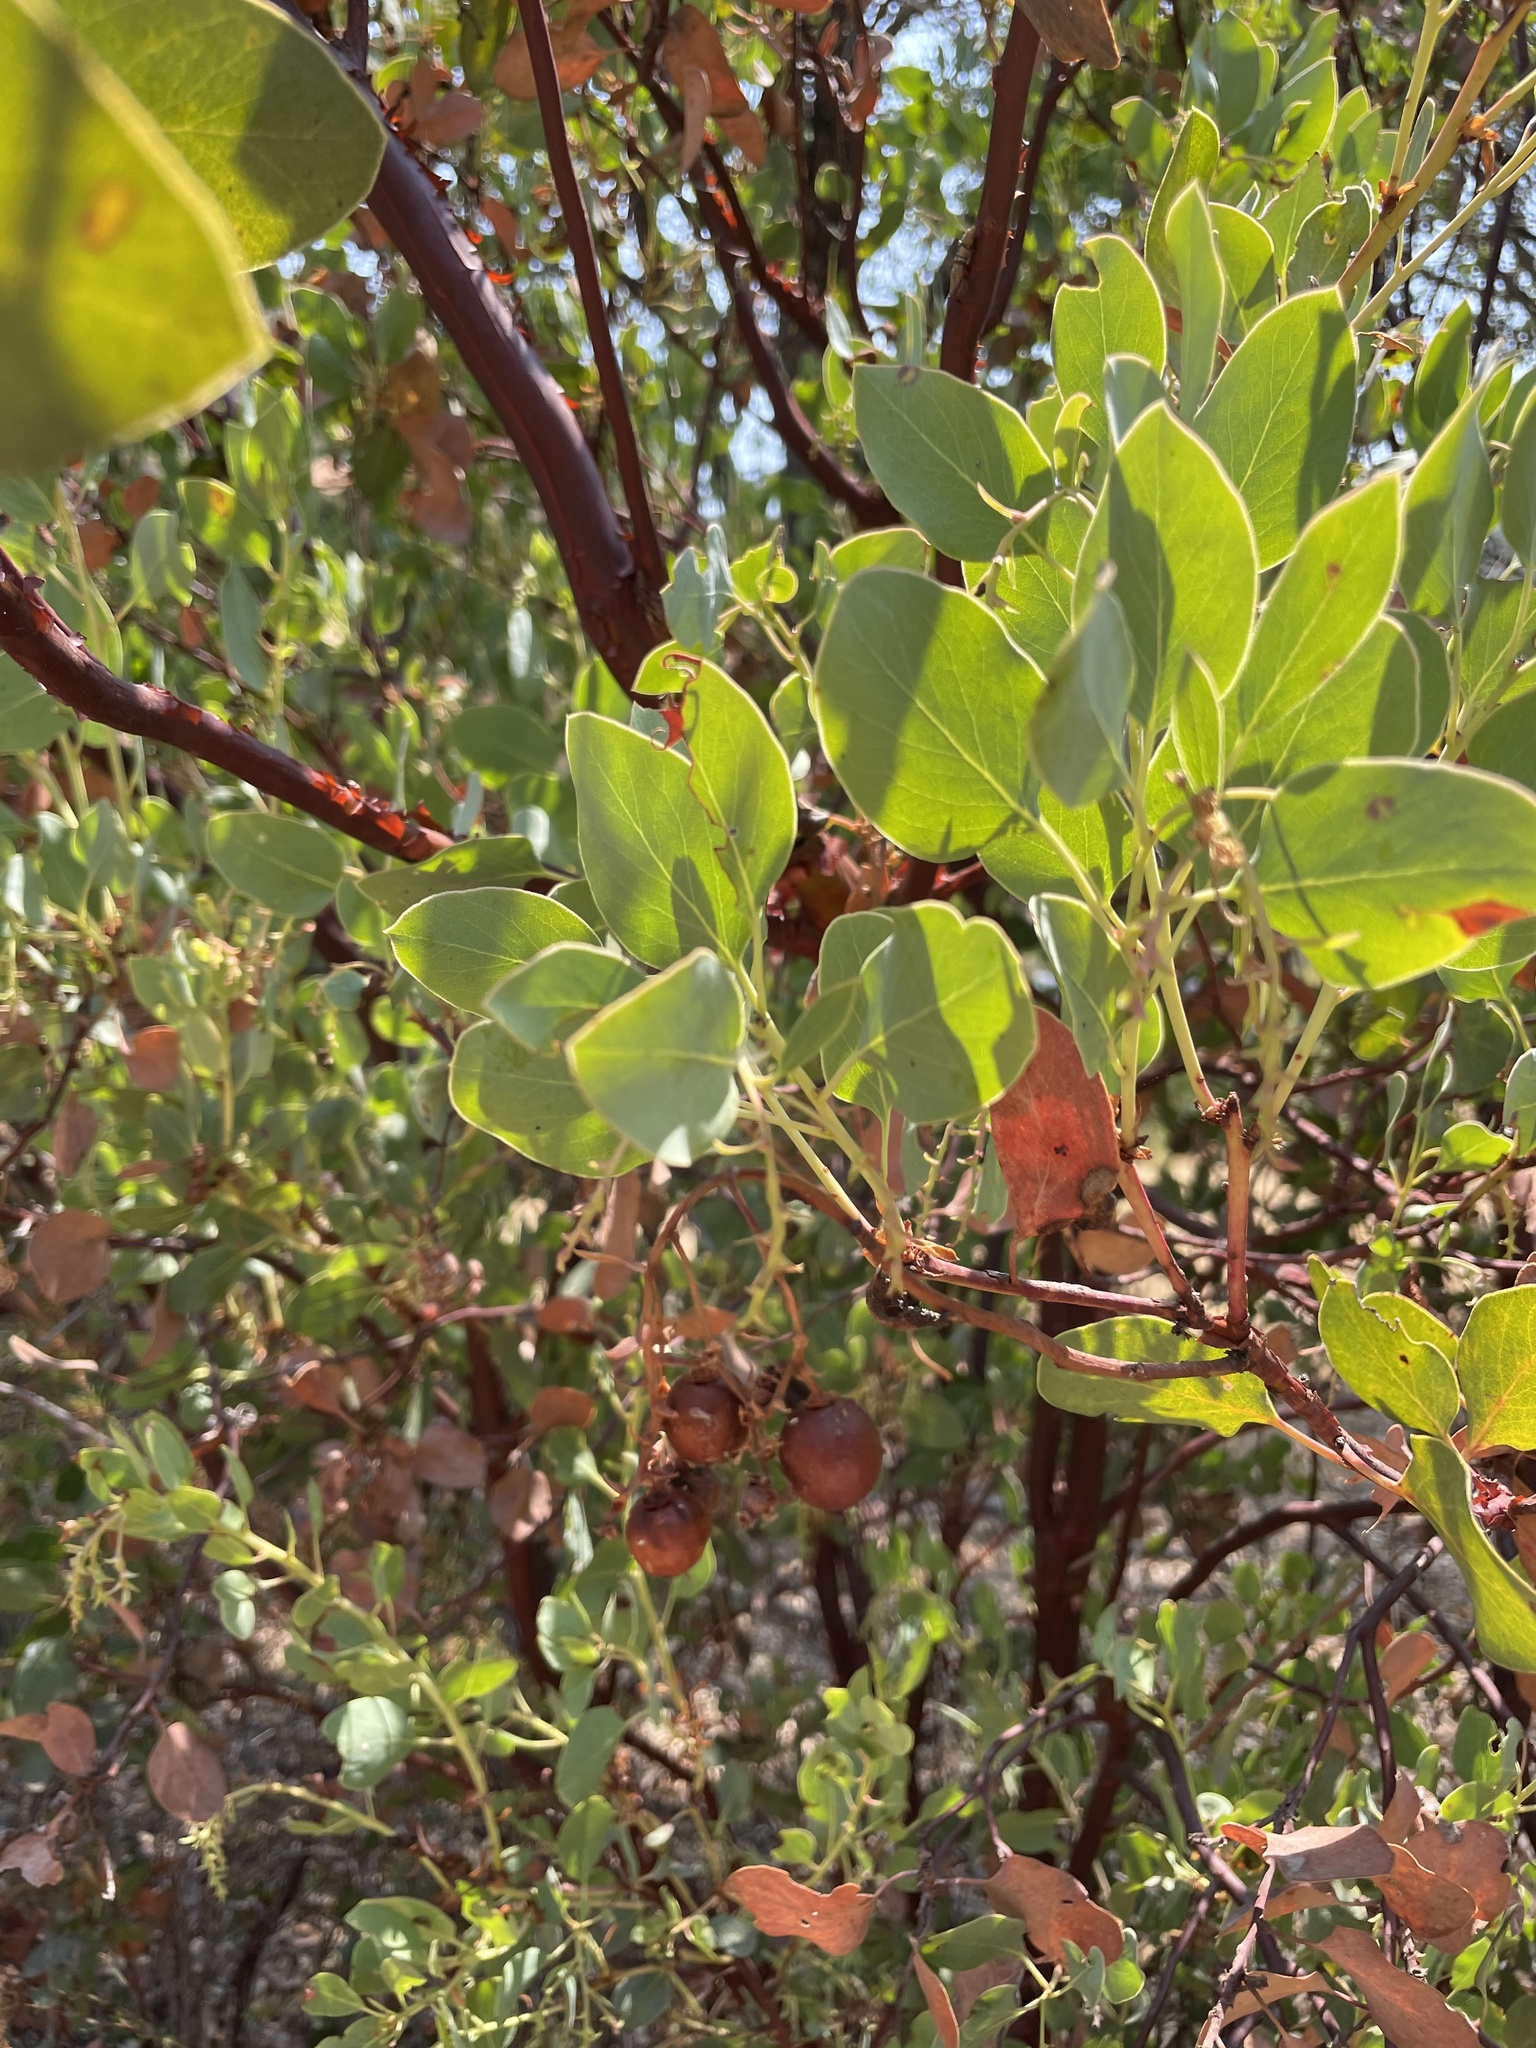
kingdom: Plantae
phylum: Tracheophyta
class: Magnoliopsida
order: Ericales
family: Ericaceae
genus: Arctostaphylos
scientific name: Arctostaphylos glauca
